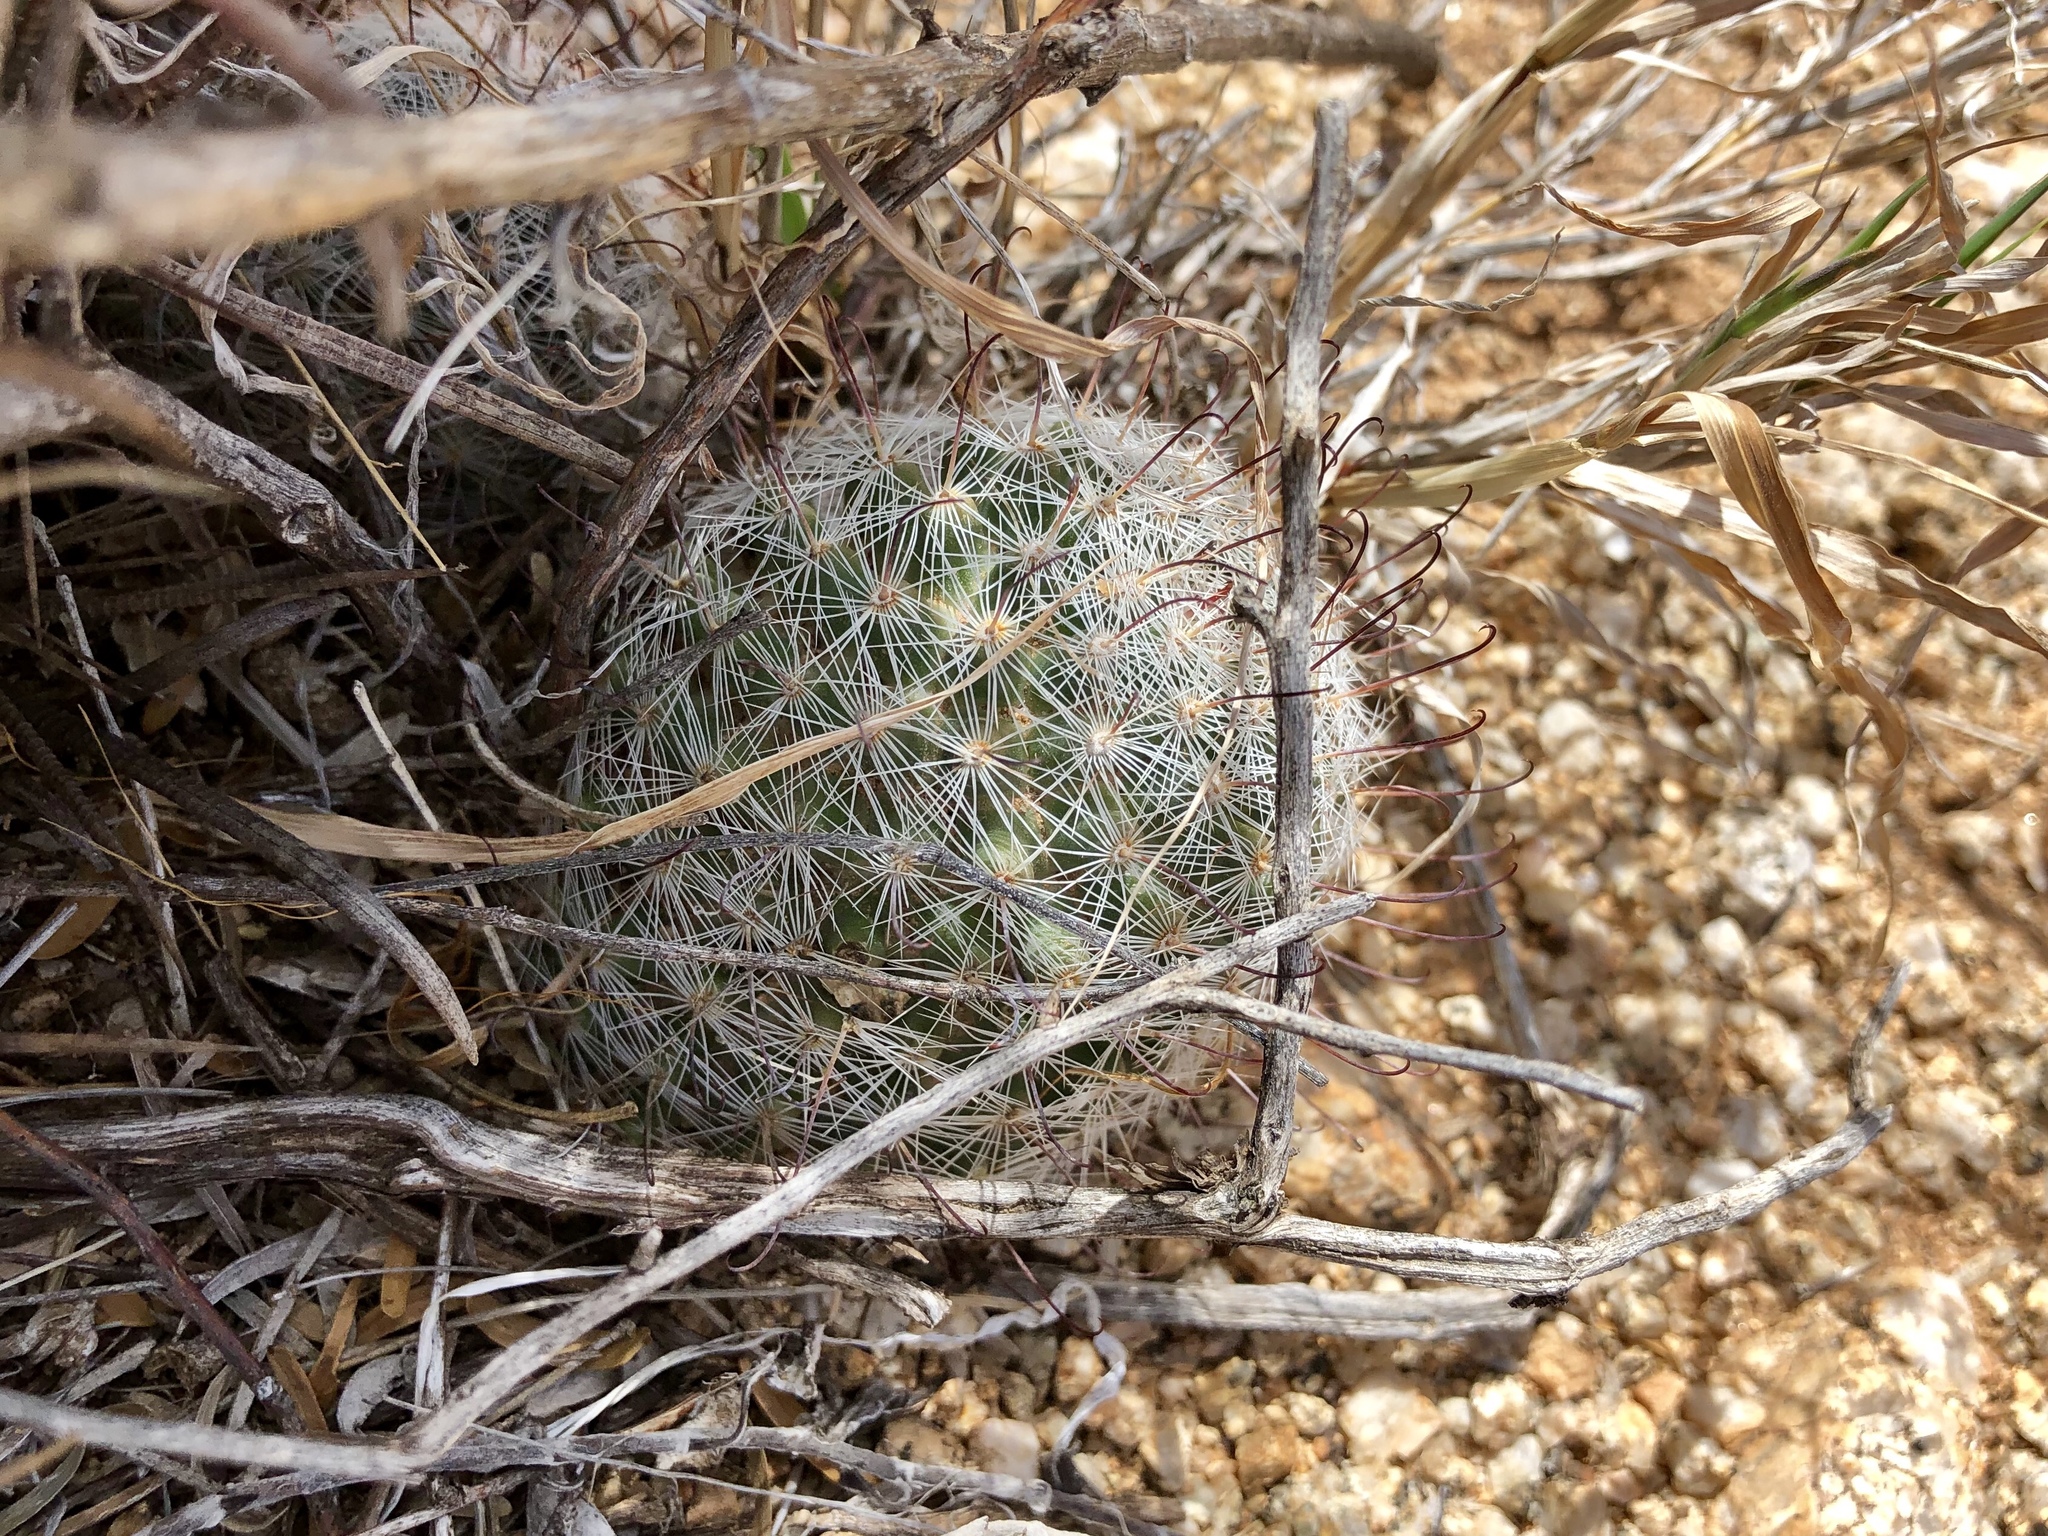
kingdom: Plantae
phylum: Tracheophyta
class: Magnoliopsida
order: Caryophyllales
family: Cactaceae
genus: Cochemiea
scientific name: Cochemiea grahamii
